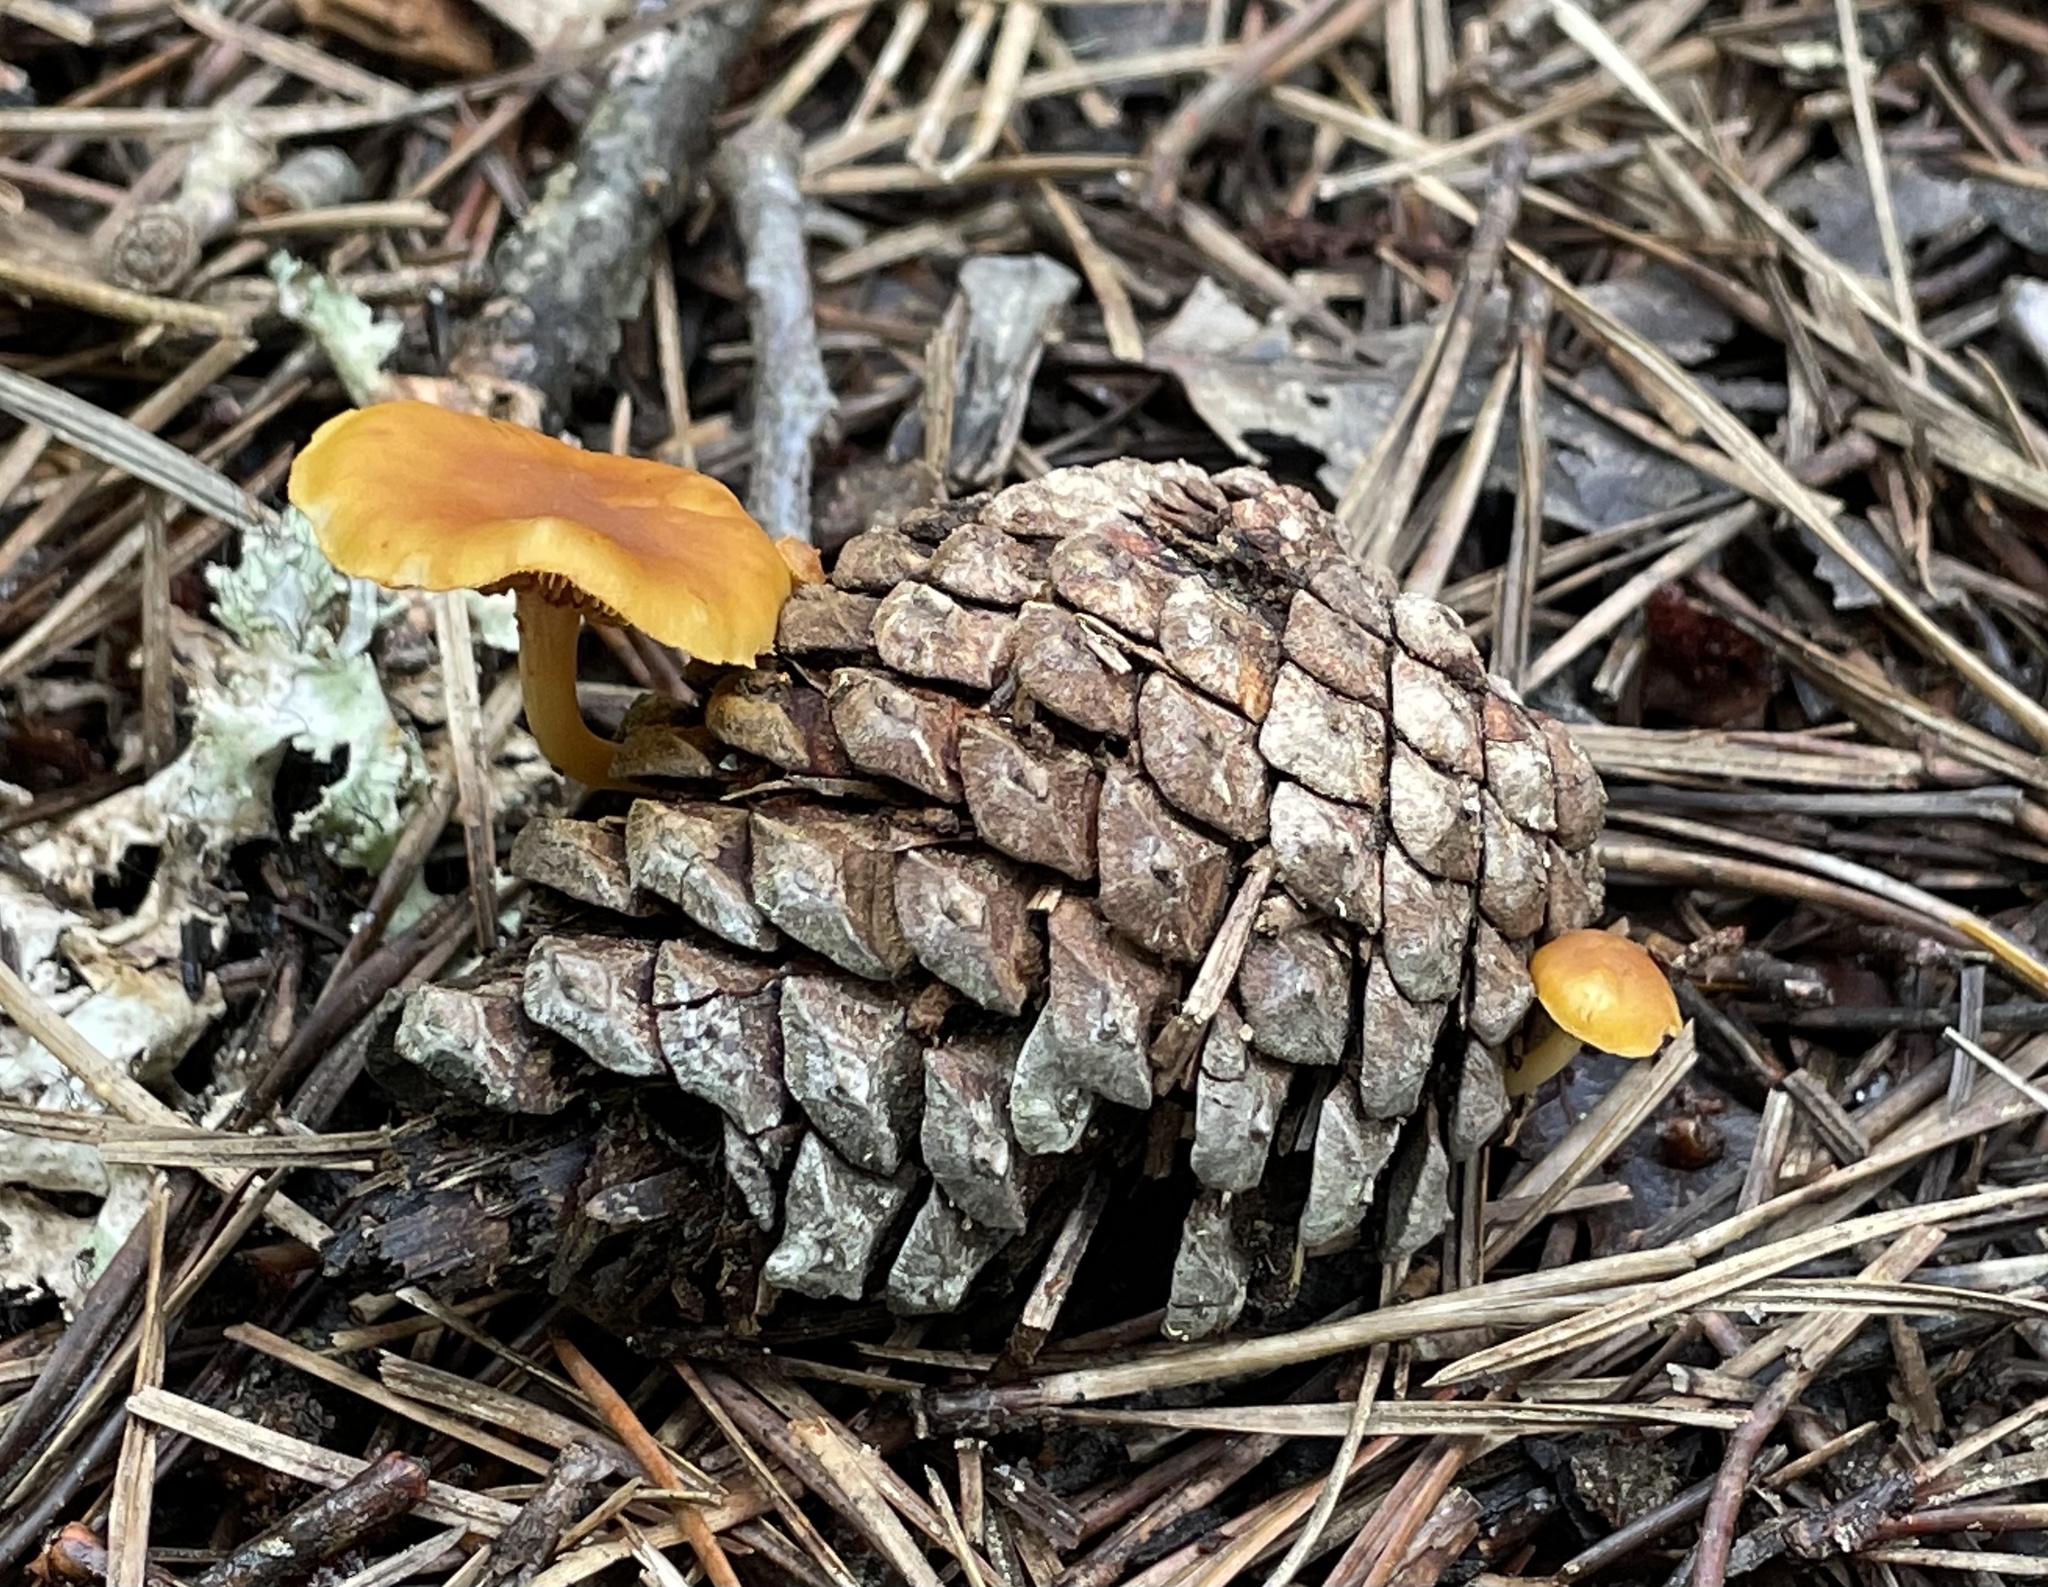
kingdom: Fungi
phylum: Basidiomycota
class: Agaricomycetes
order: Agaricales
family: Hymenogastraceae
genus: Gymnopilus
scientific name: Gymnopilus sapineus
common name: Scaly rustgill
